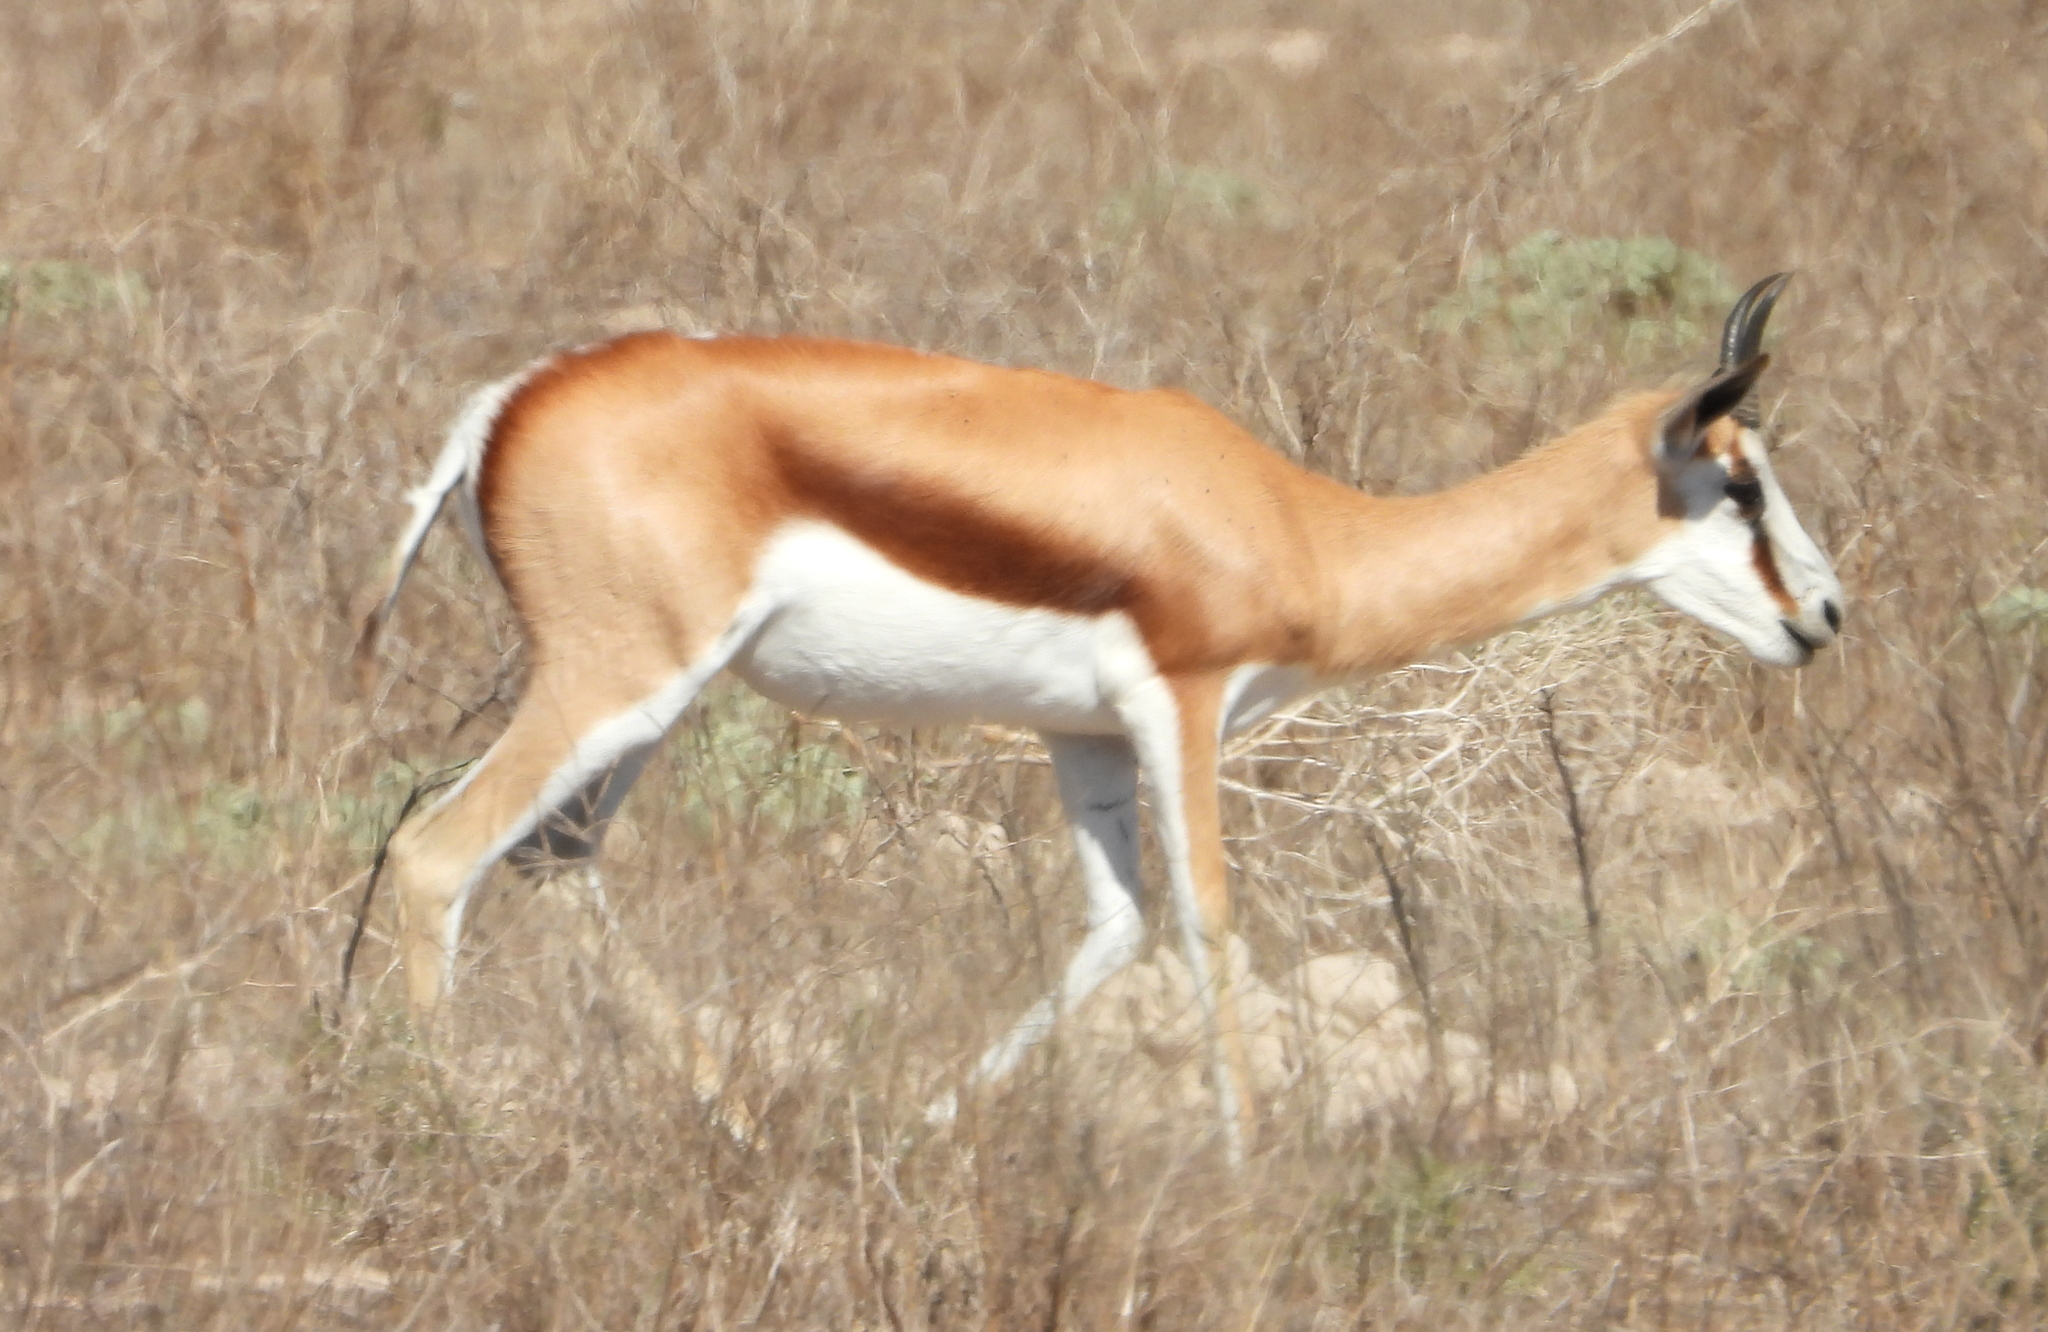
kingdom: Animalia
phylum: Chordata
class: Mammalia
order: Artiodactyla
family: Bovidae
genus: Antidorcas
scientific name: Antidorcas marsupialis
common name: Springbok
